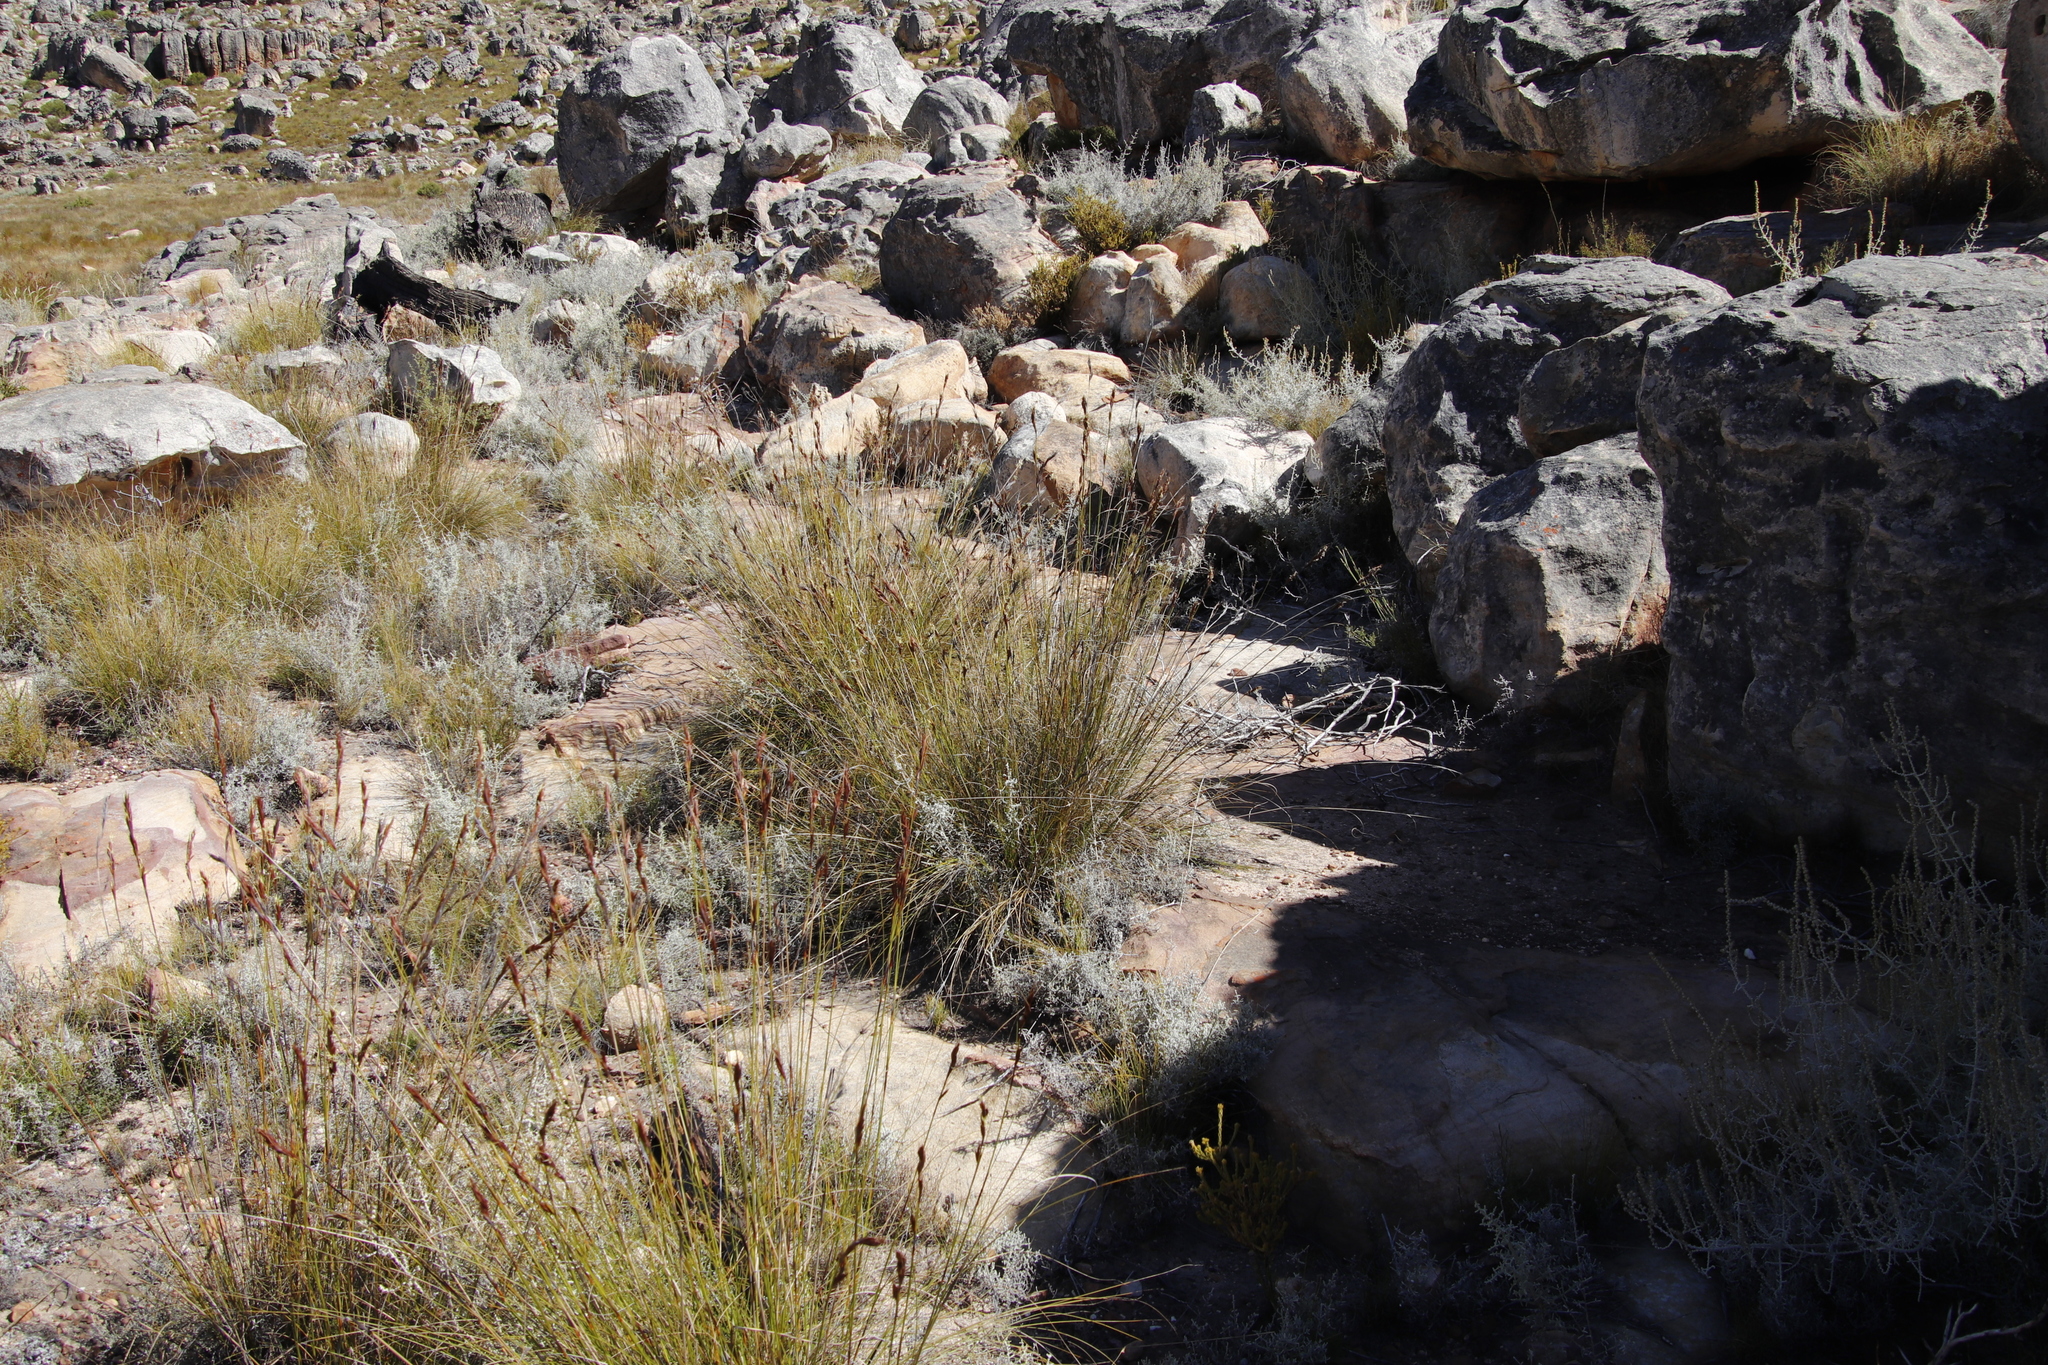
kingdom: Plantae
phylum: Tracheophyta
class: Liliopsida
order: Poales
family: Cyperaceae
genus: Tetraria
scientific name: Tetraria ustulata
